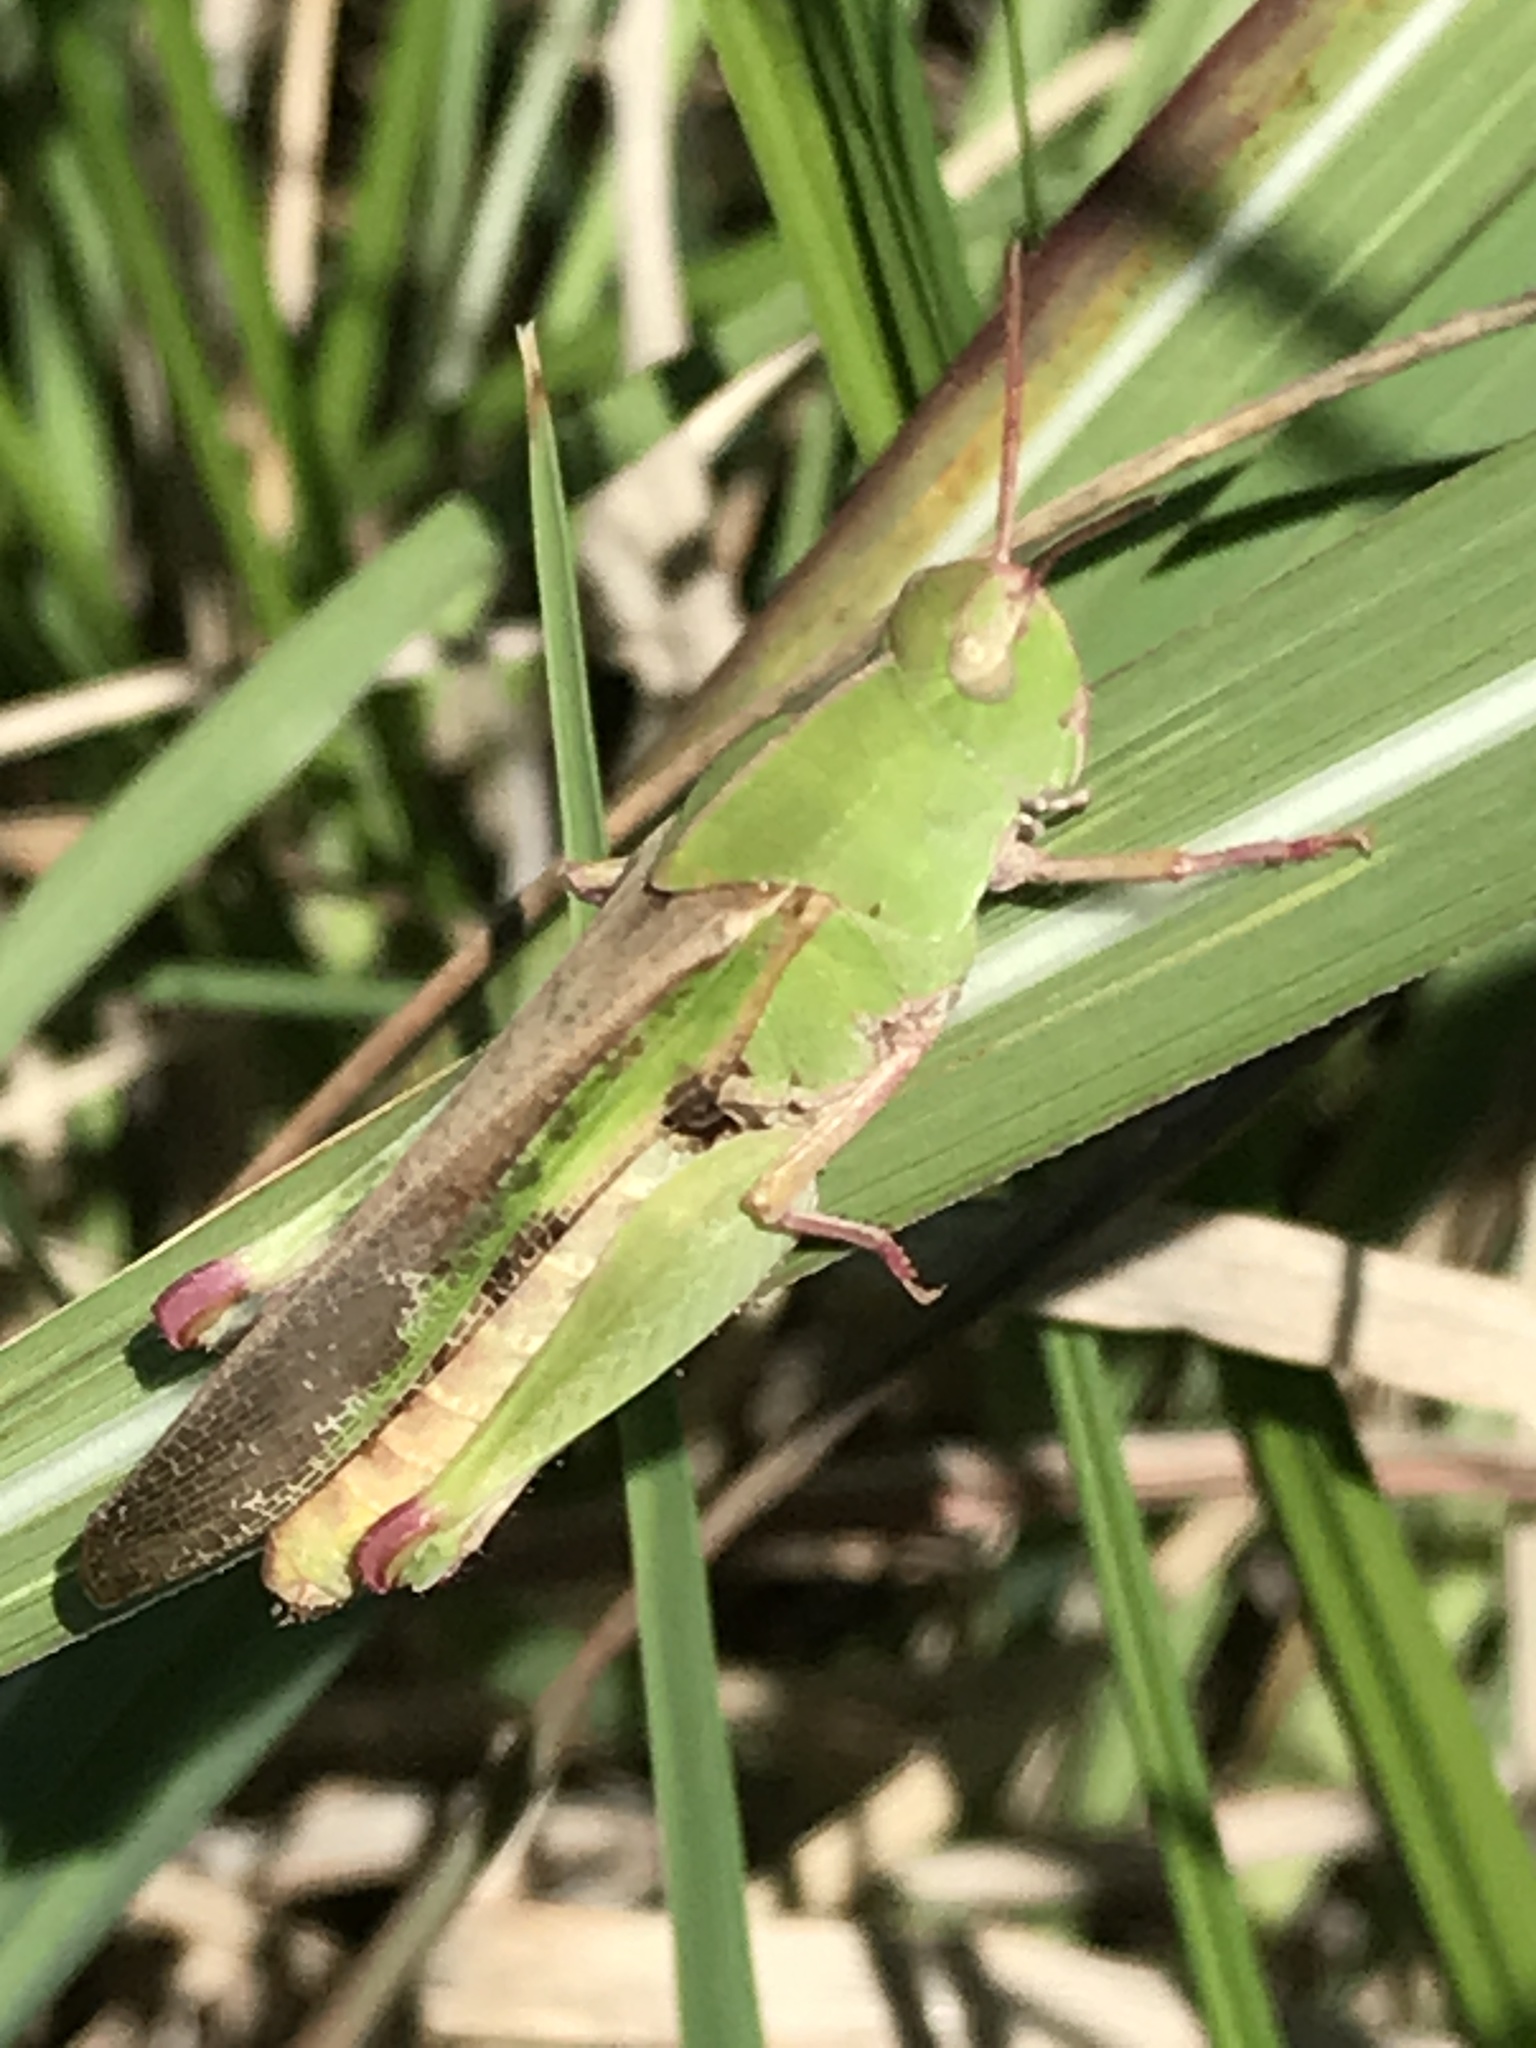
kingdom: Animalia
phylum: Arthropoda
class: Insecta
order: Orthoptera
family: Acrididae
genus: Chortophaga
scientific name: Chortophaga viridifasciata
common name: Green-striped grasshopper
